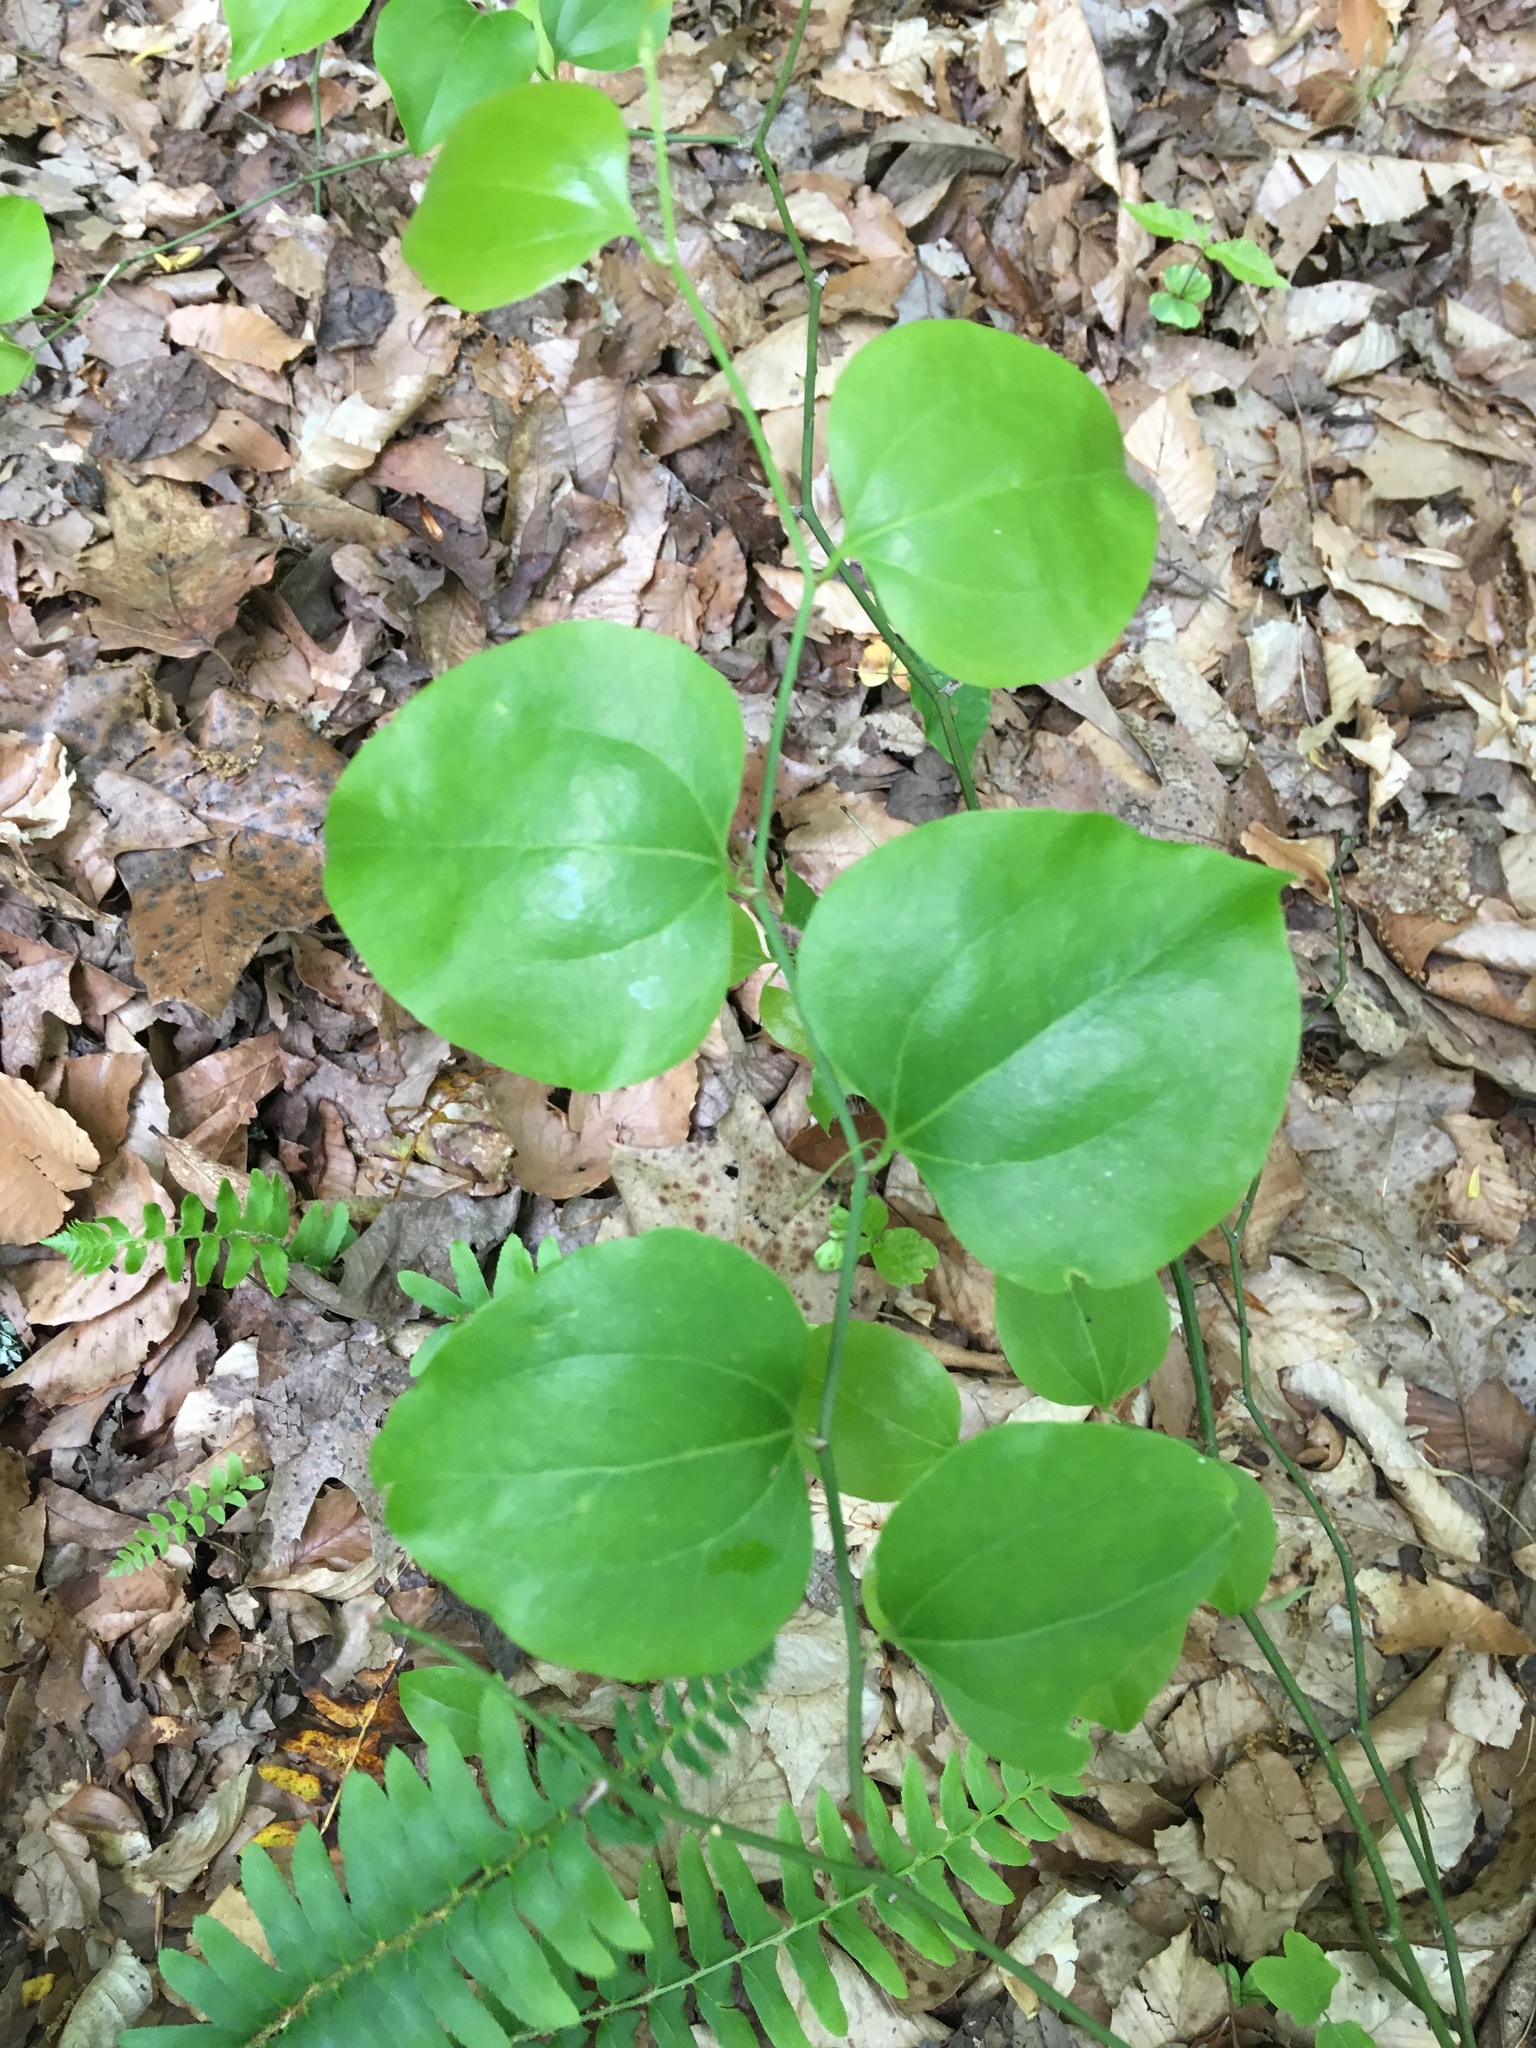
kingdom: Plantae
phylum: Tracheophyta
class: Liliopsida
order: Liliales
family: Smilacaceae
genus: Smilax
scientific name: Smilax rotundifolia
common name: Bullbriar
